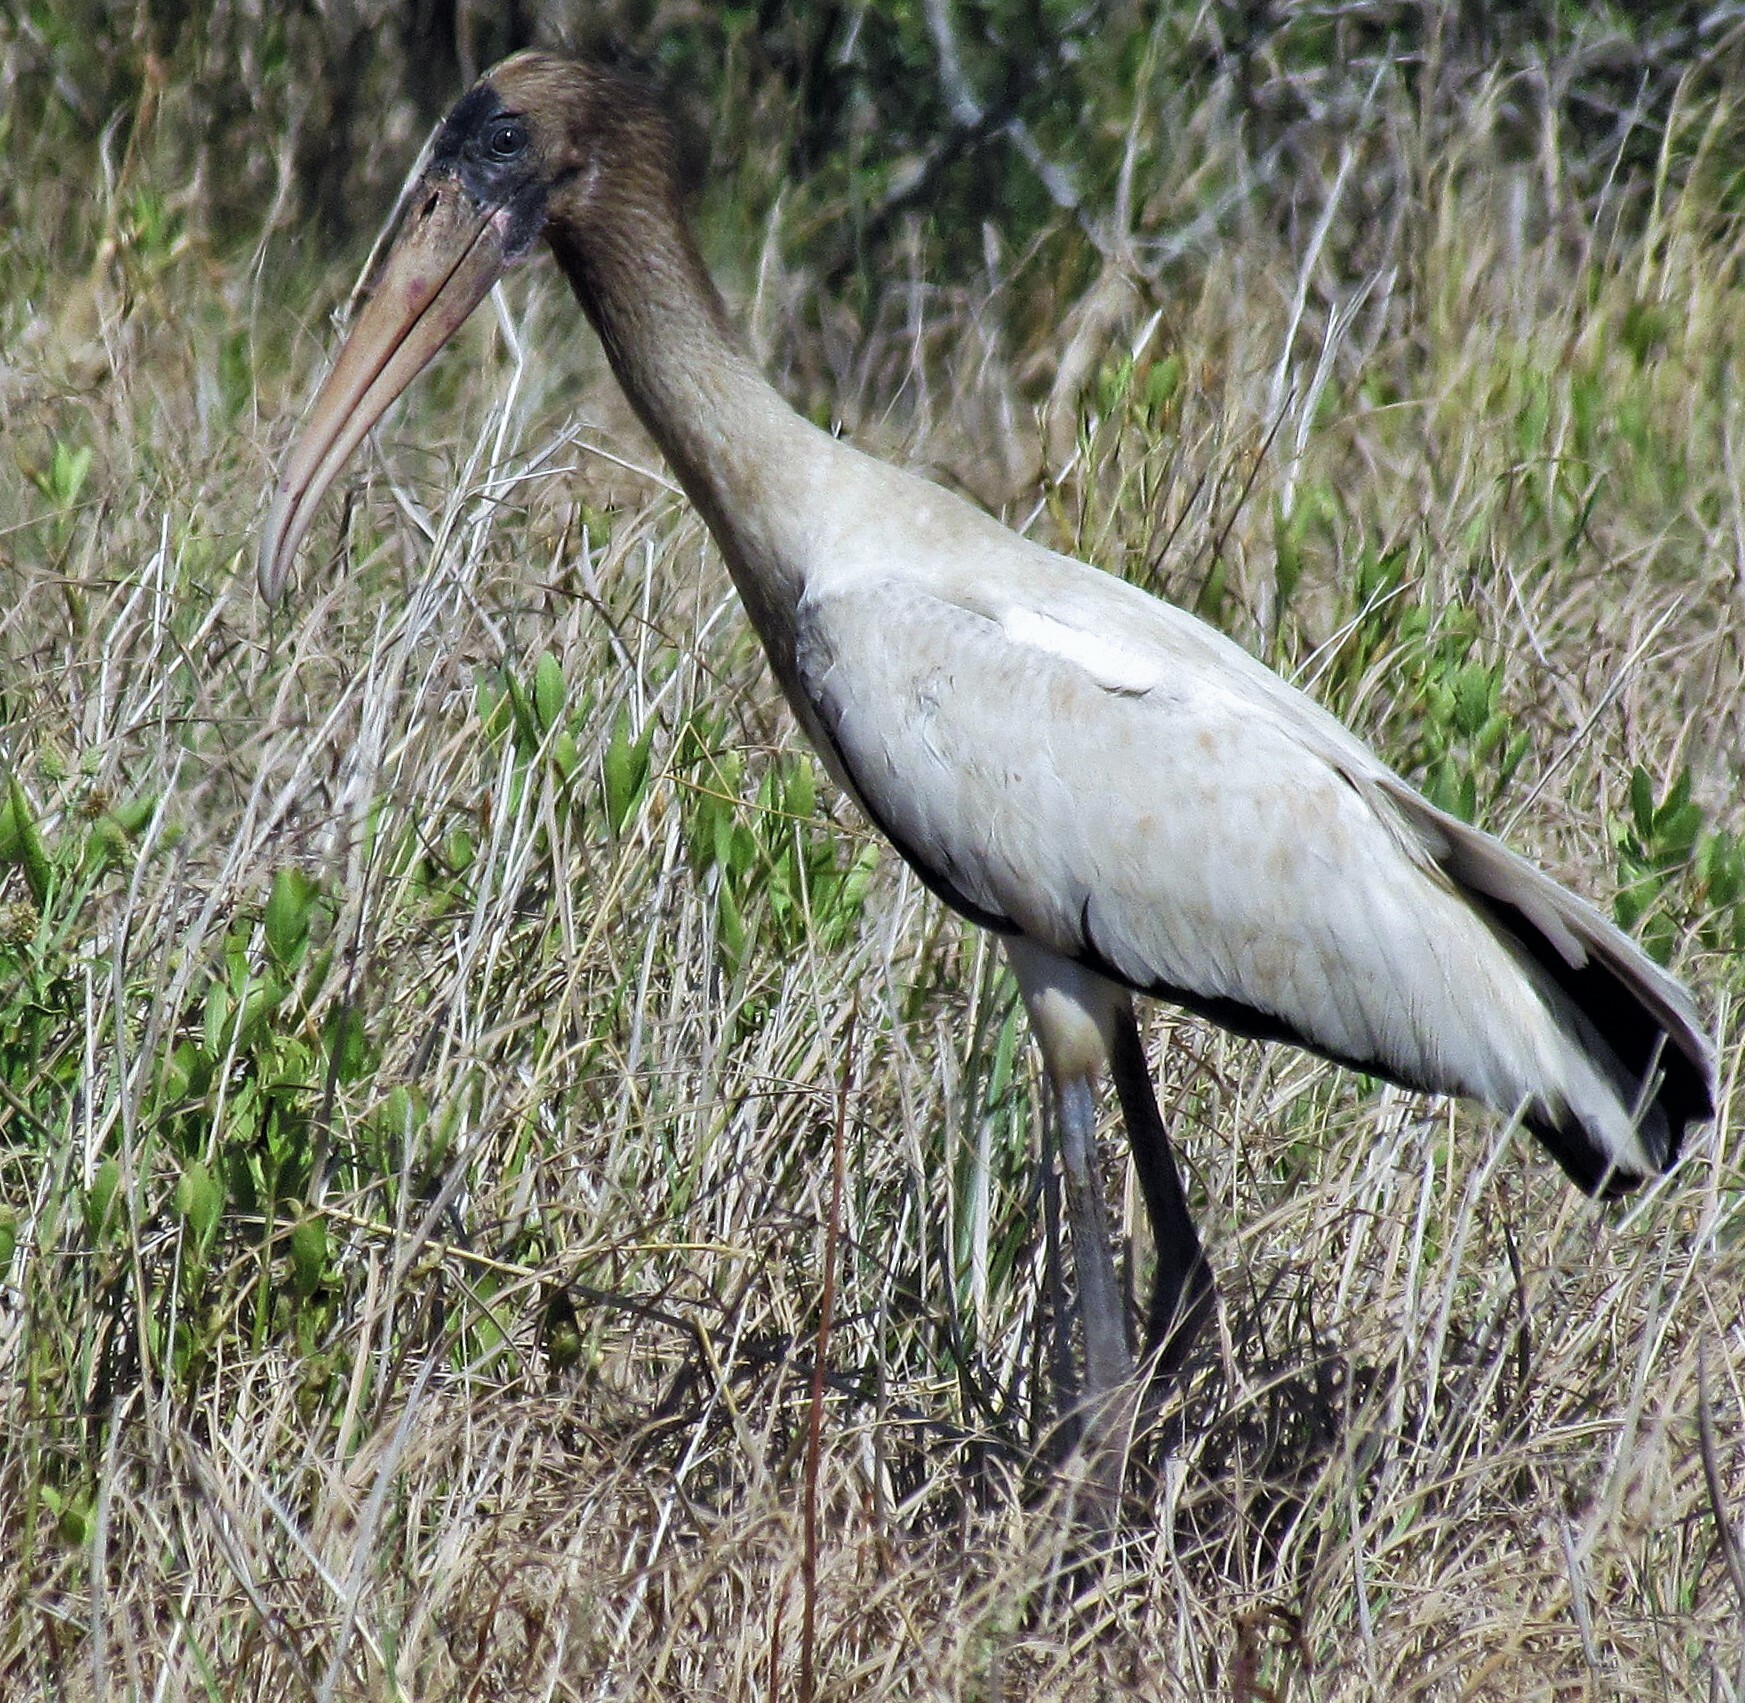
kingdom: Animalia
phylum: Chordata
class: Aves
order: Ciconiiformes
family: Ciconiidae
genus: Mycteria
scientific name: Mycteria americana
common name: Wood stork
